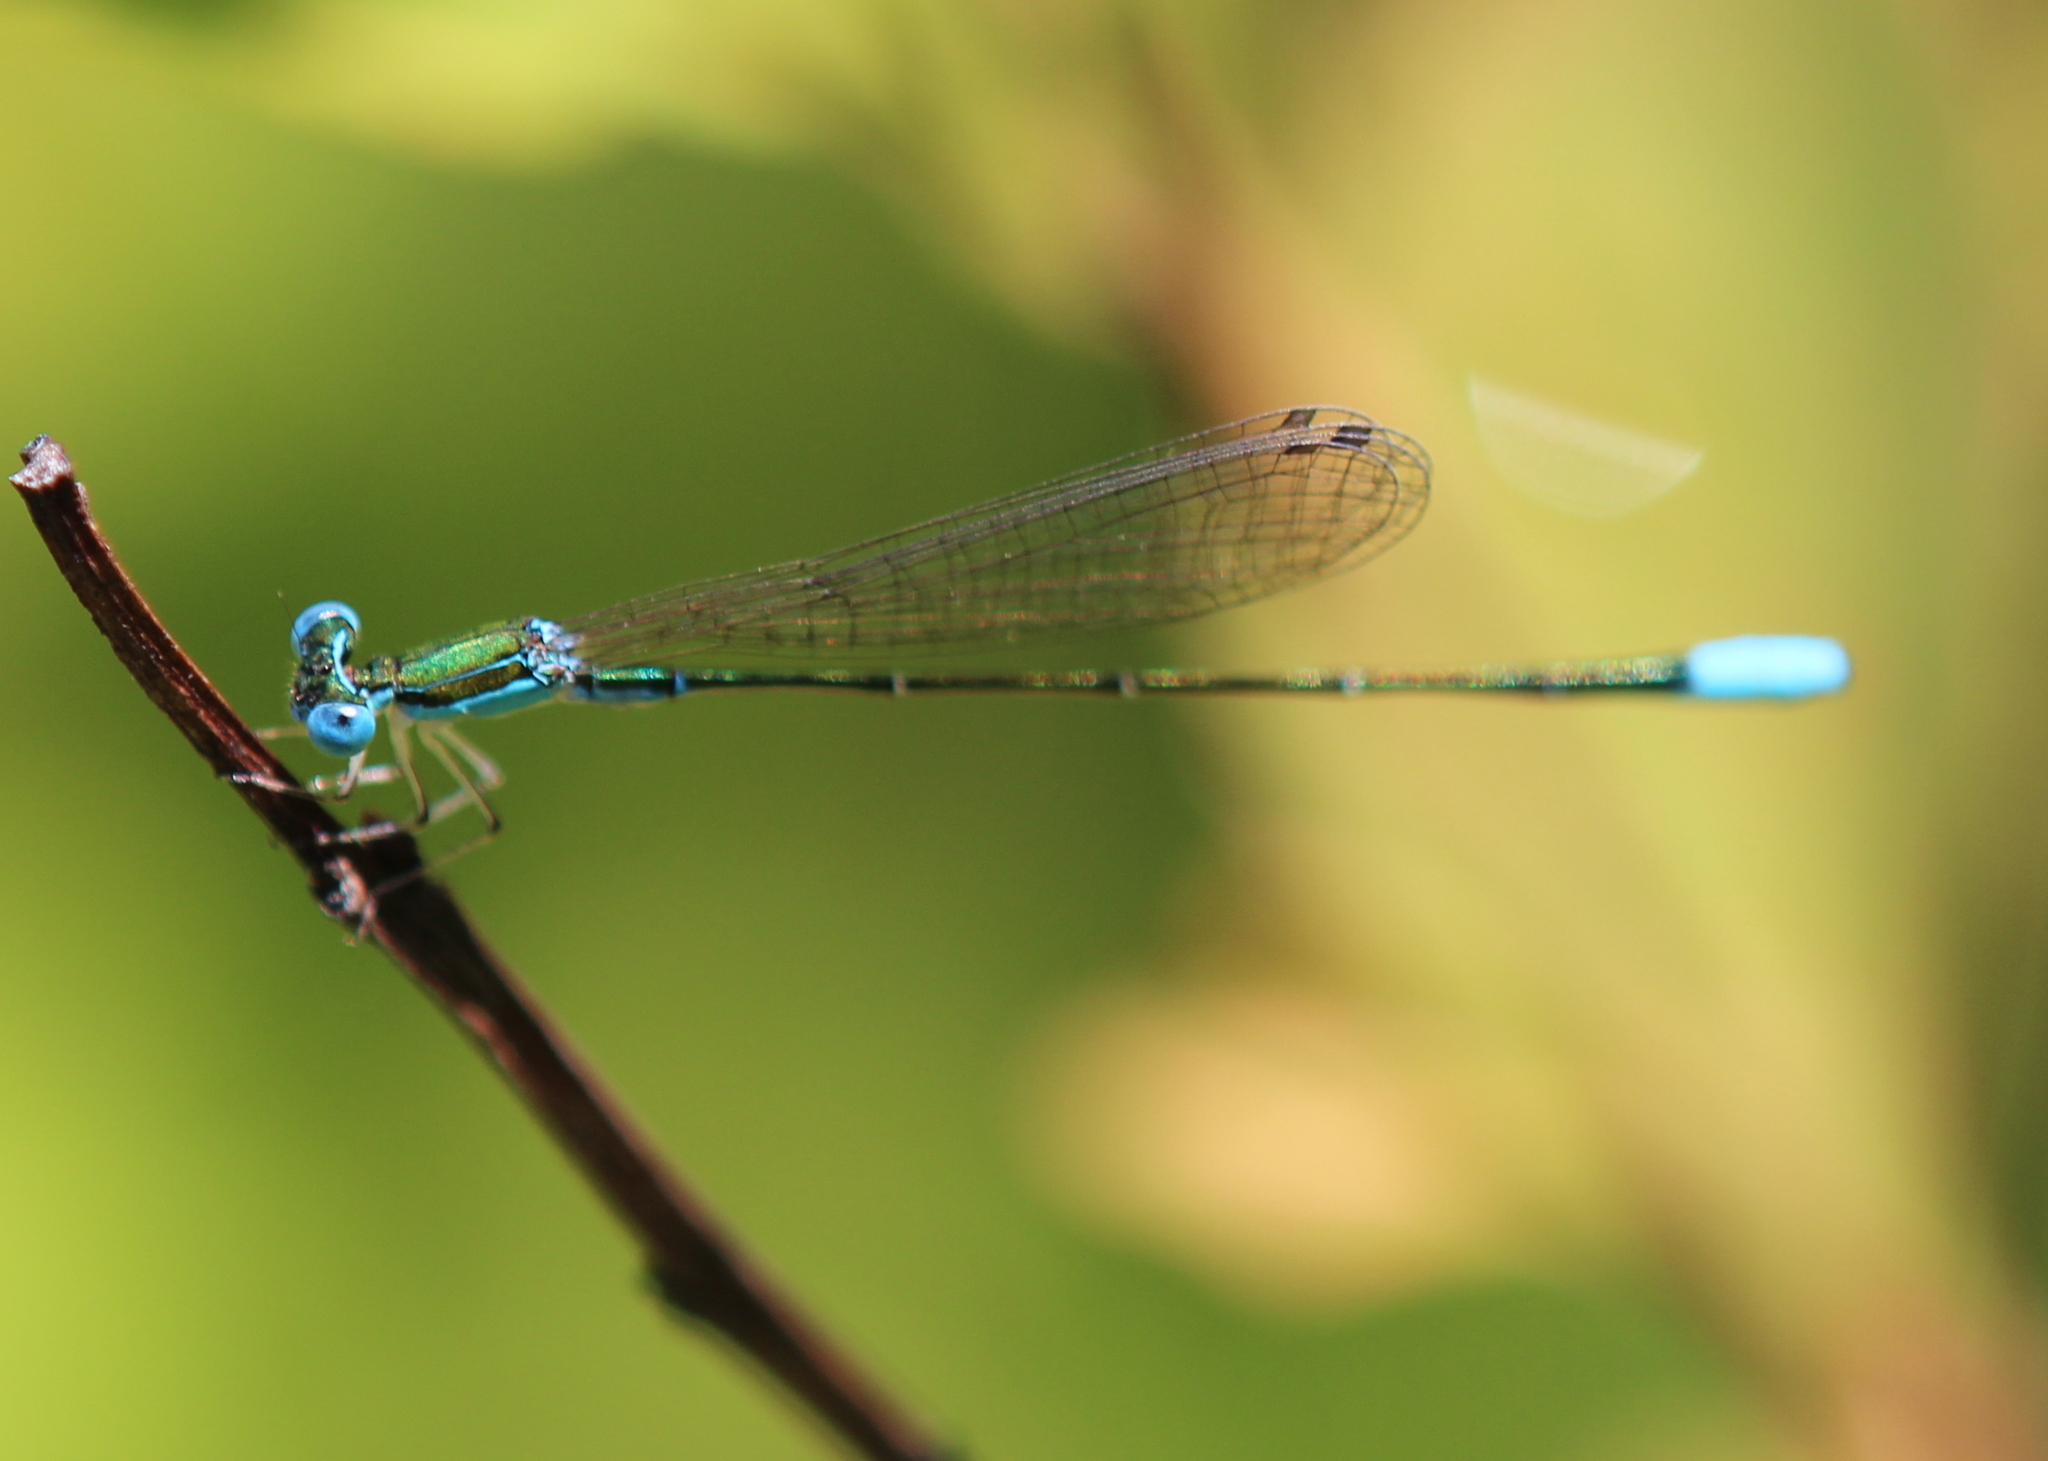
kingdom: Animalia
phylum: Arthropoda
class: Insecta
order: Odonata
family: Coenagrionidae
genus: Nehalennia
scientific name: Nehalennia gracilis
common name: Sphagnum sprite
